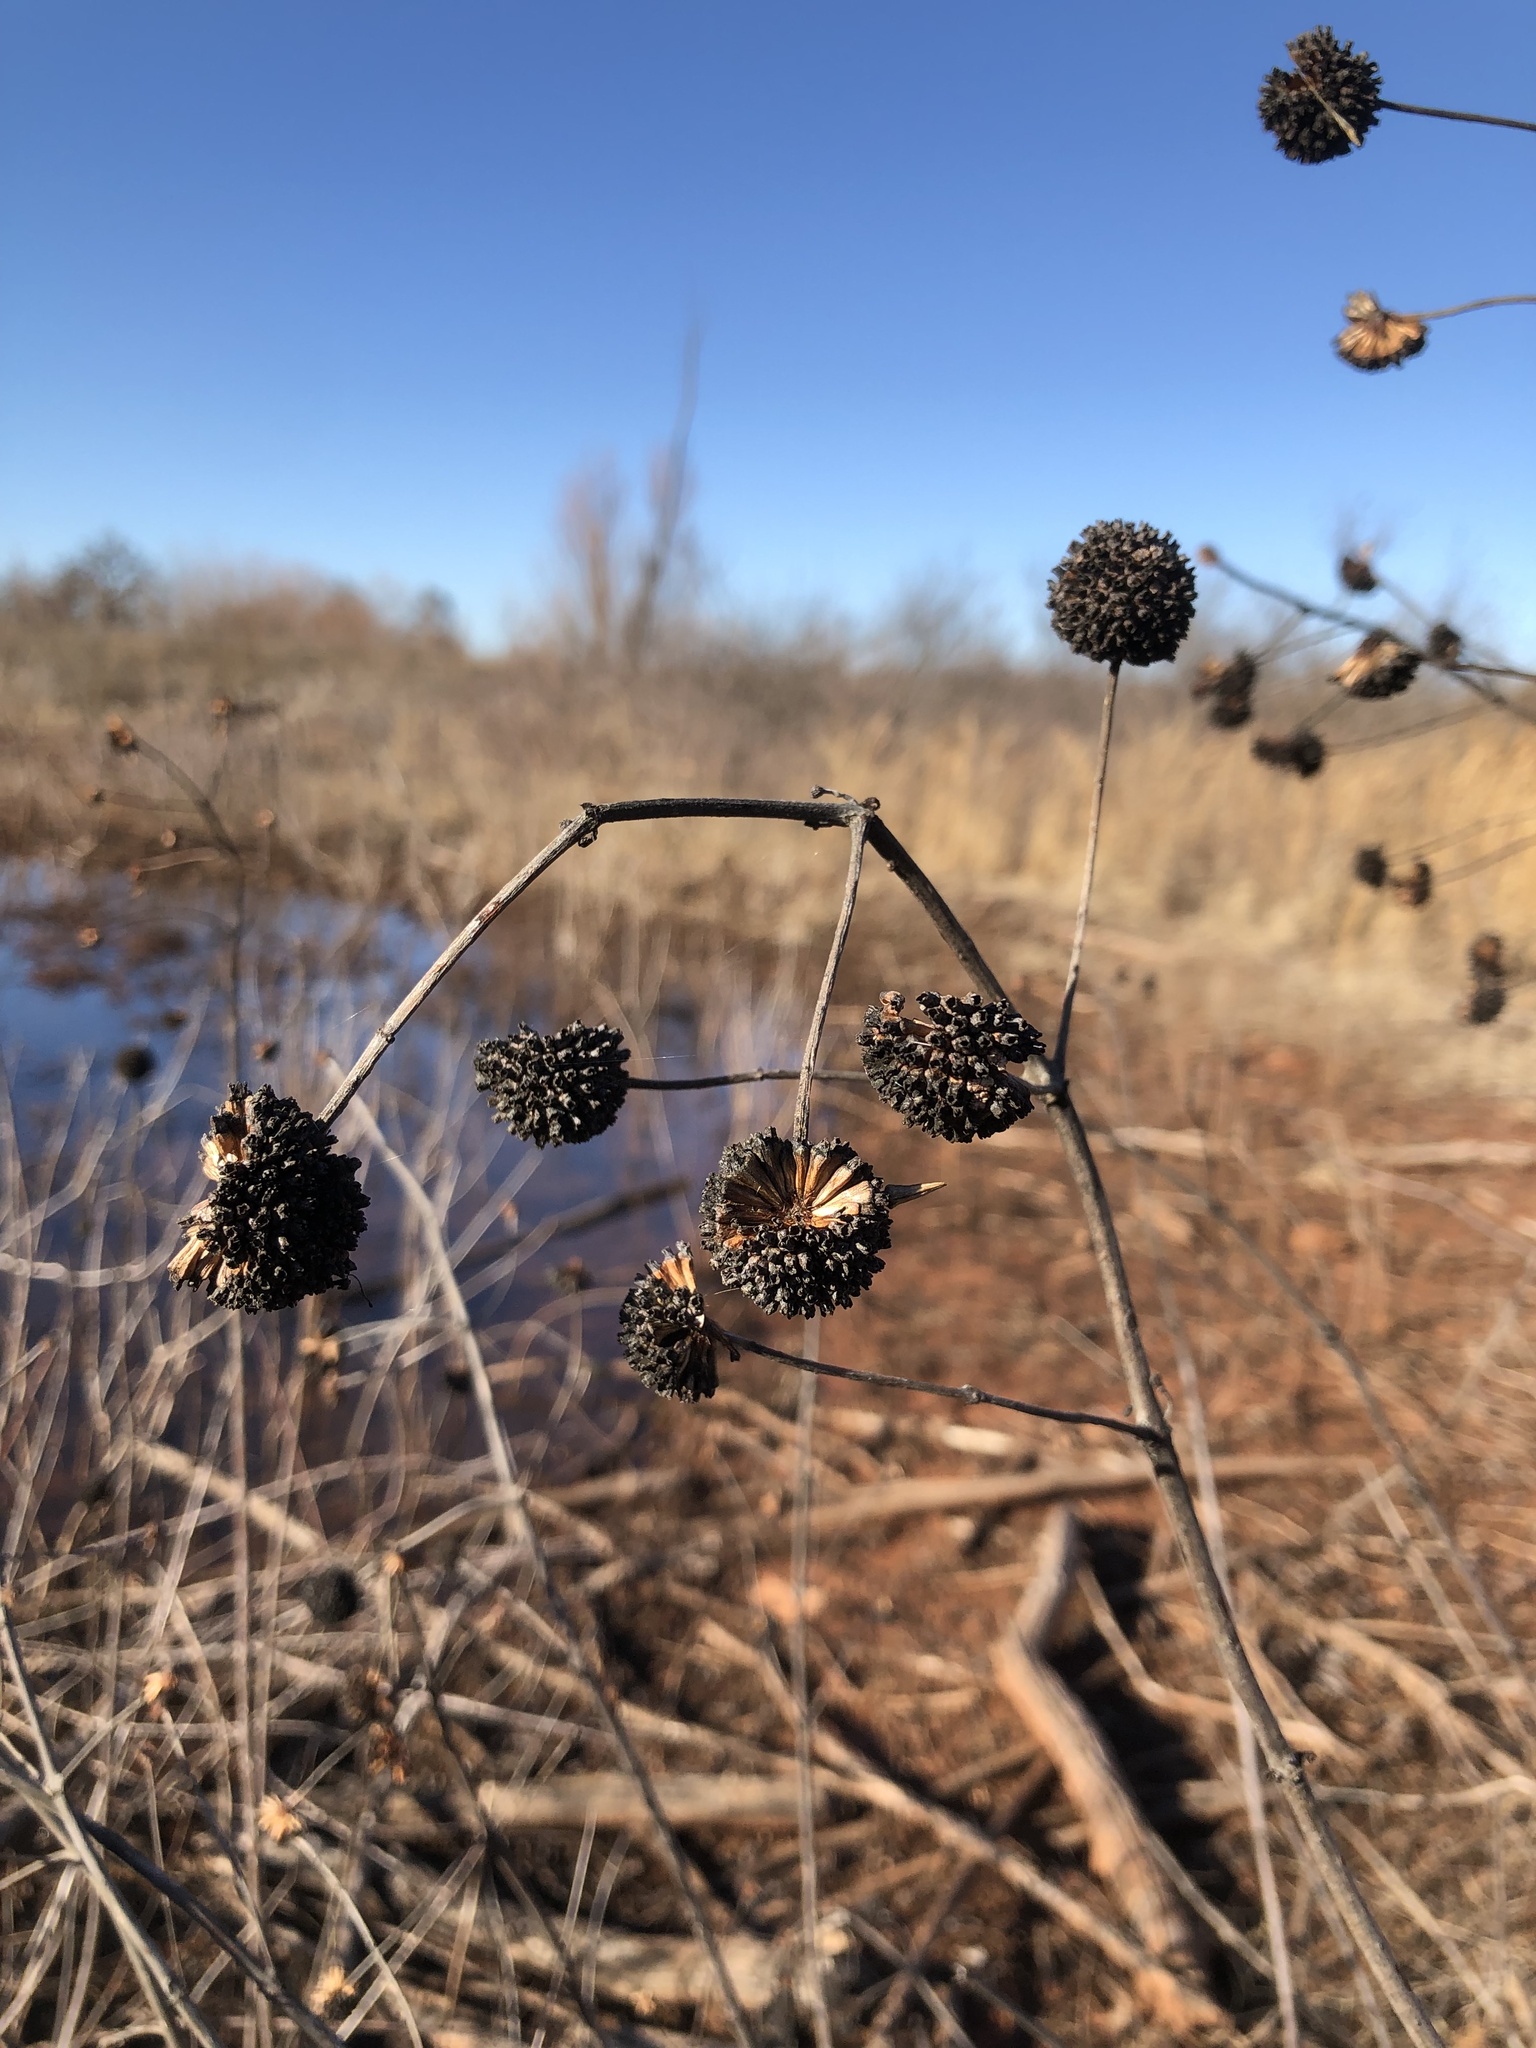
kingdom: Plantae
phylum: Tracheophyta
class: Magnoliopsida
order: Gentianales
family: Rubiaceae
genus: Cephalanthus
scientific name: Cephalanthus occidentalis
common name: Button-willow
